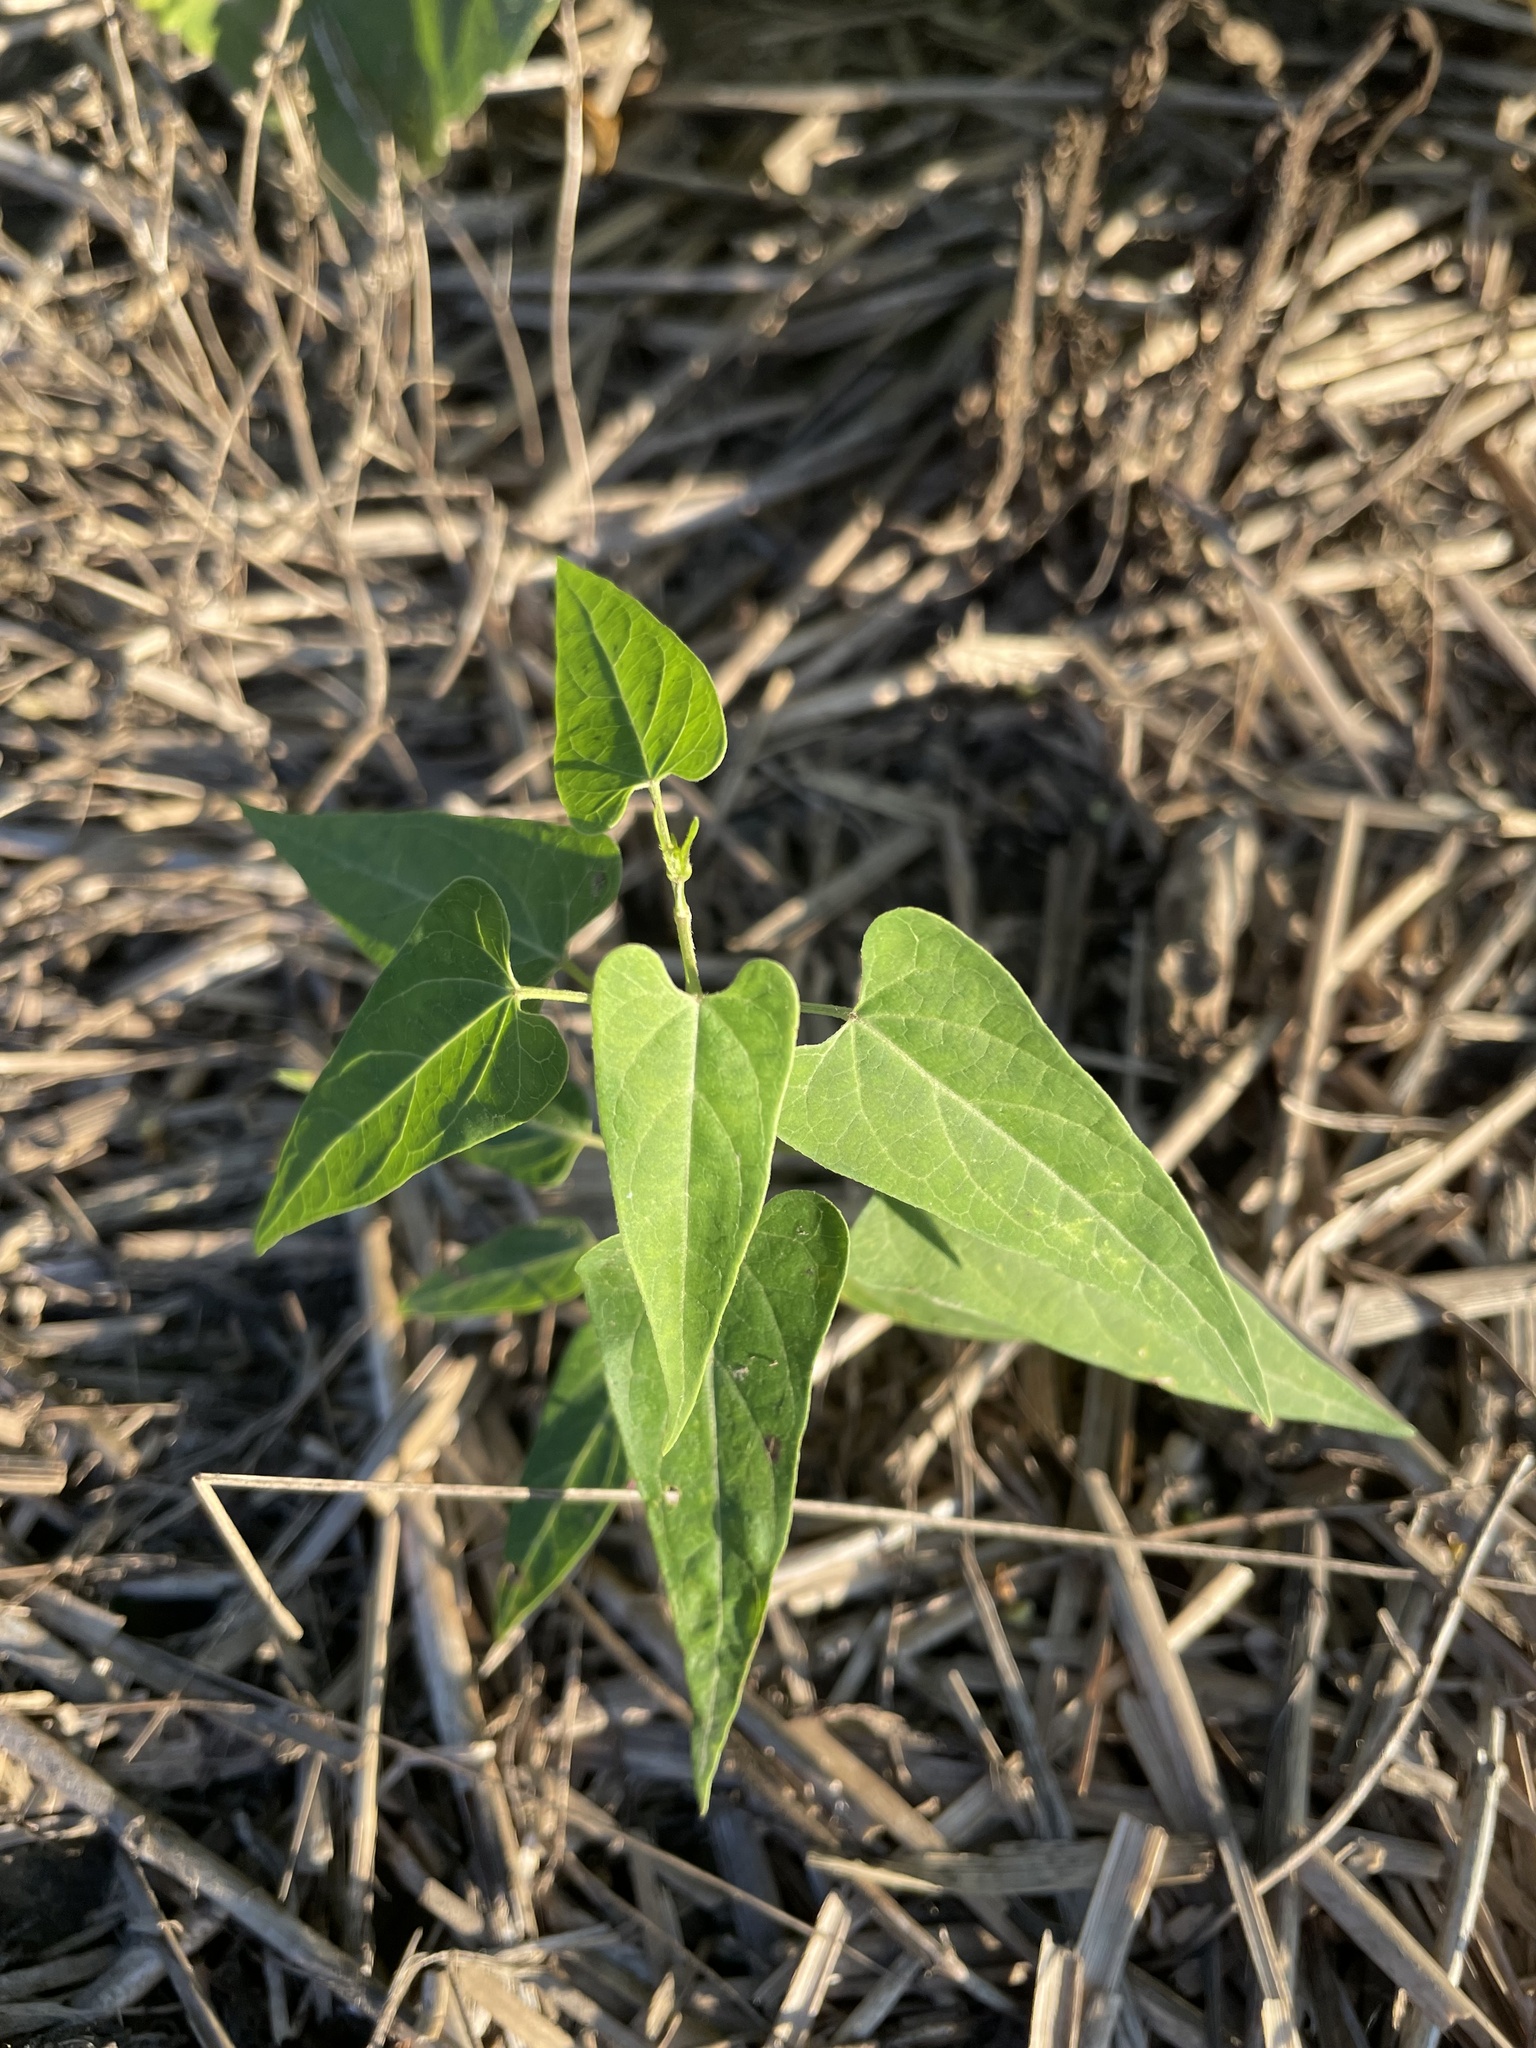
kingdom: Plantae
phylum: Tracheophyta
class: Magnoliopsida
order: Gentianales
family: Apocynaceae
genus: Cynanchum
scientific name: Cynanchum laeve
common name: Sandvine
